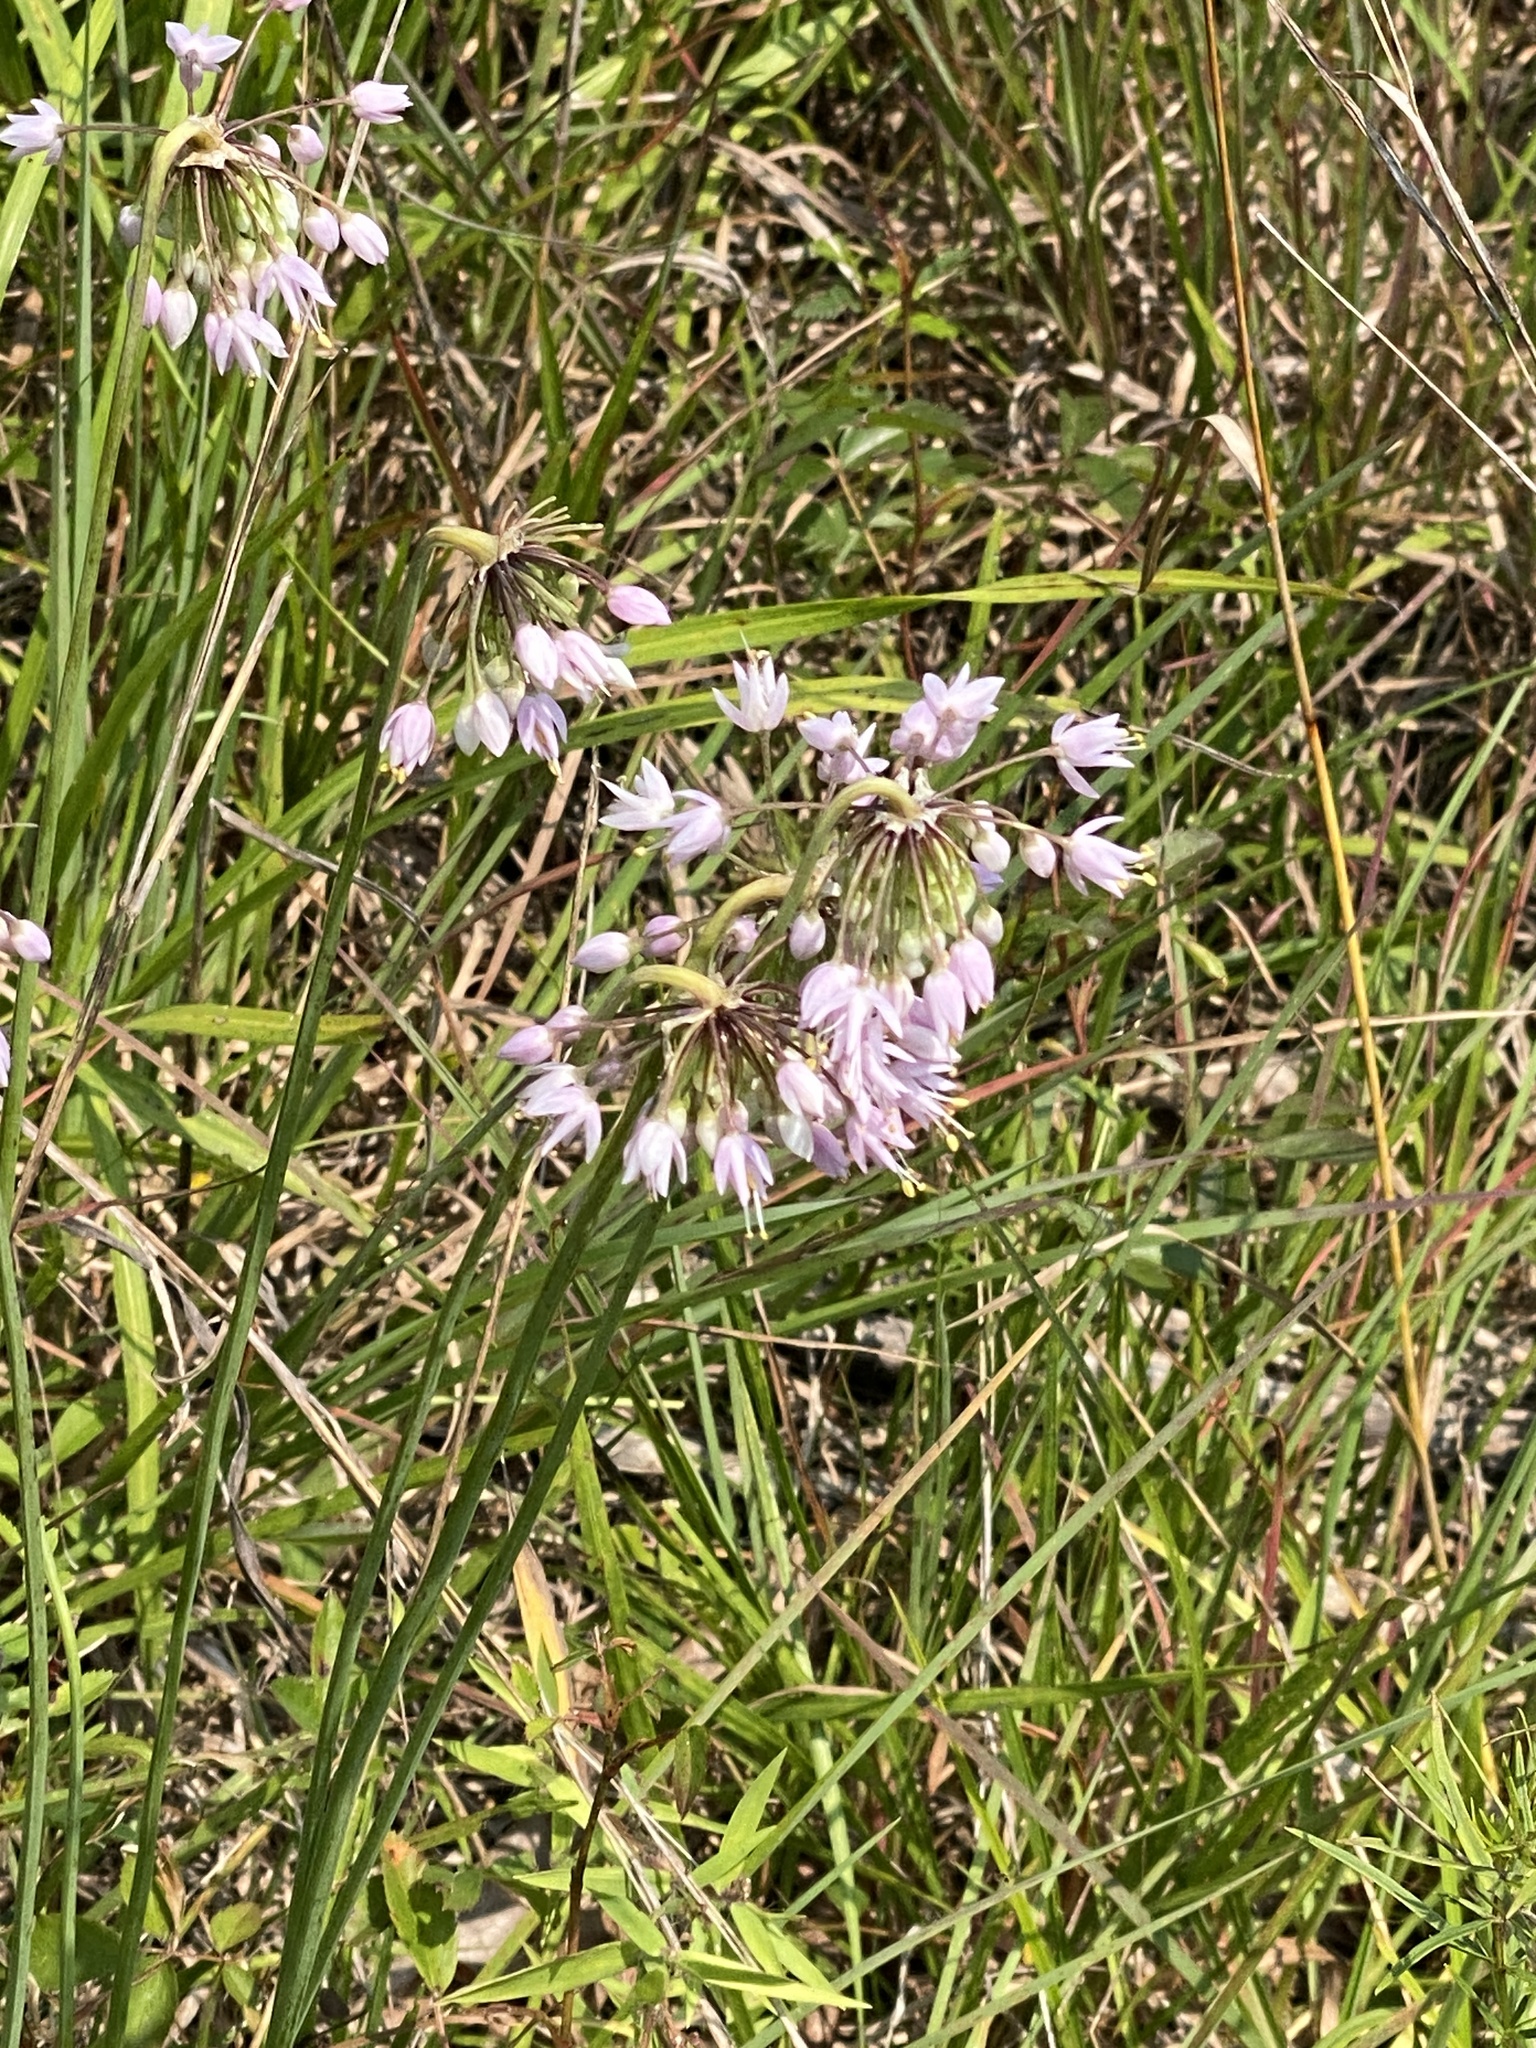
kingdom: Plantae
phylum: Tracheophyta
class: Liliopsida
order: Asparagales
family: Amaryllidaceae
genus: Allium
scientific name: Allium cernuum
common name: Nodding onion
